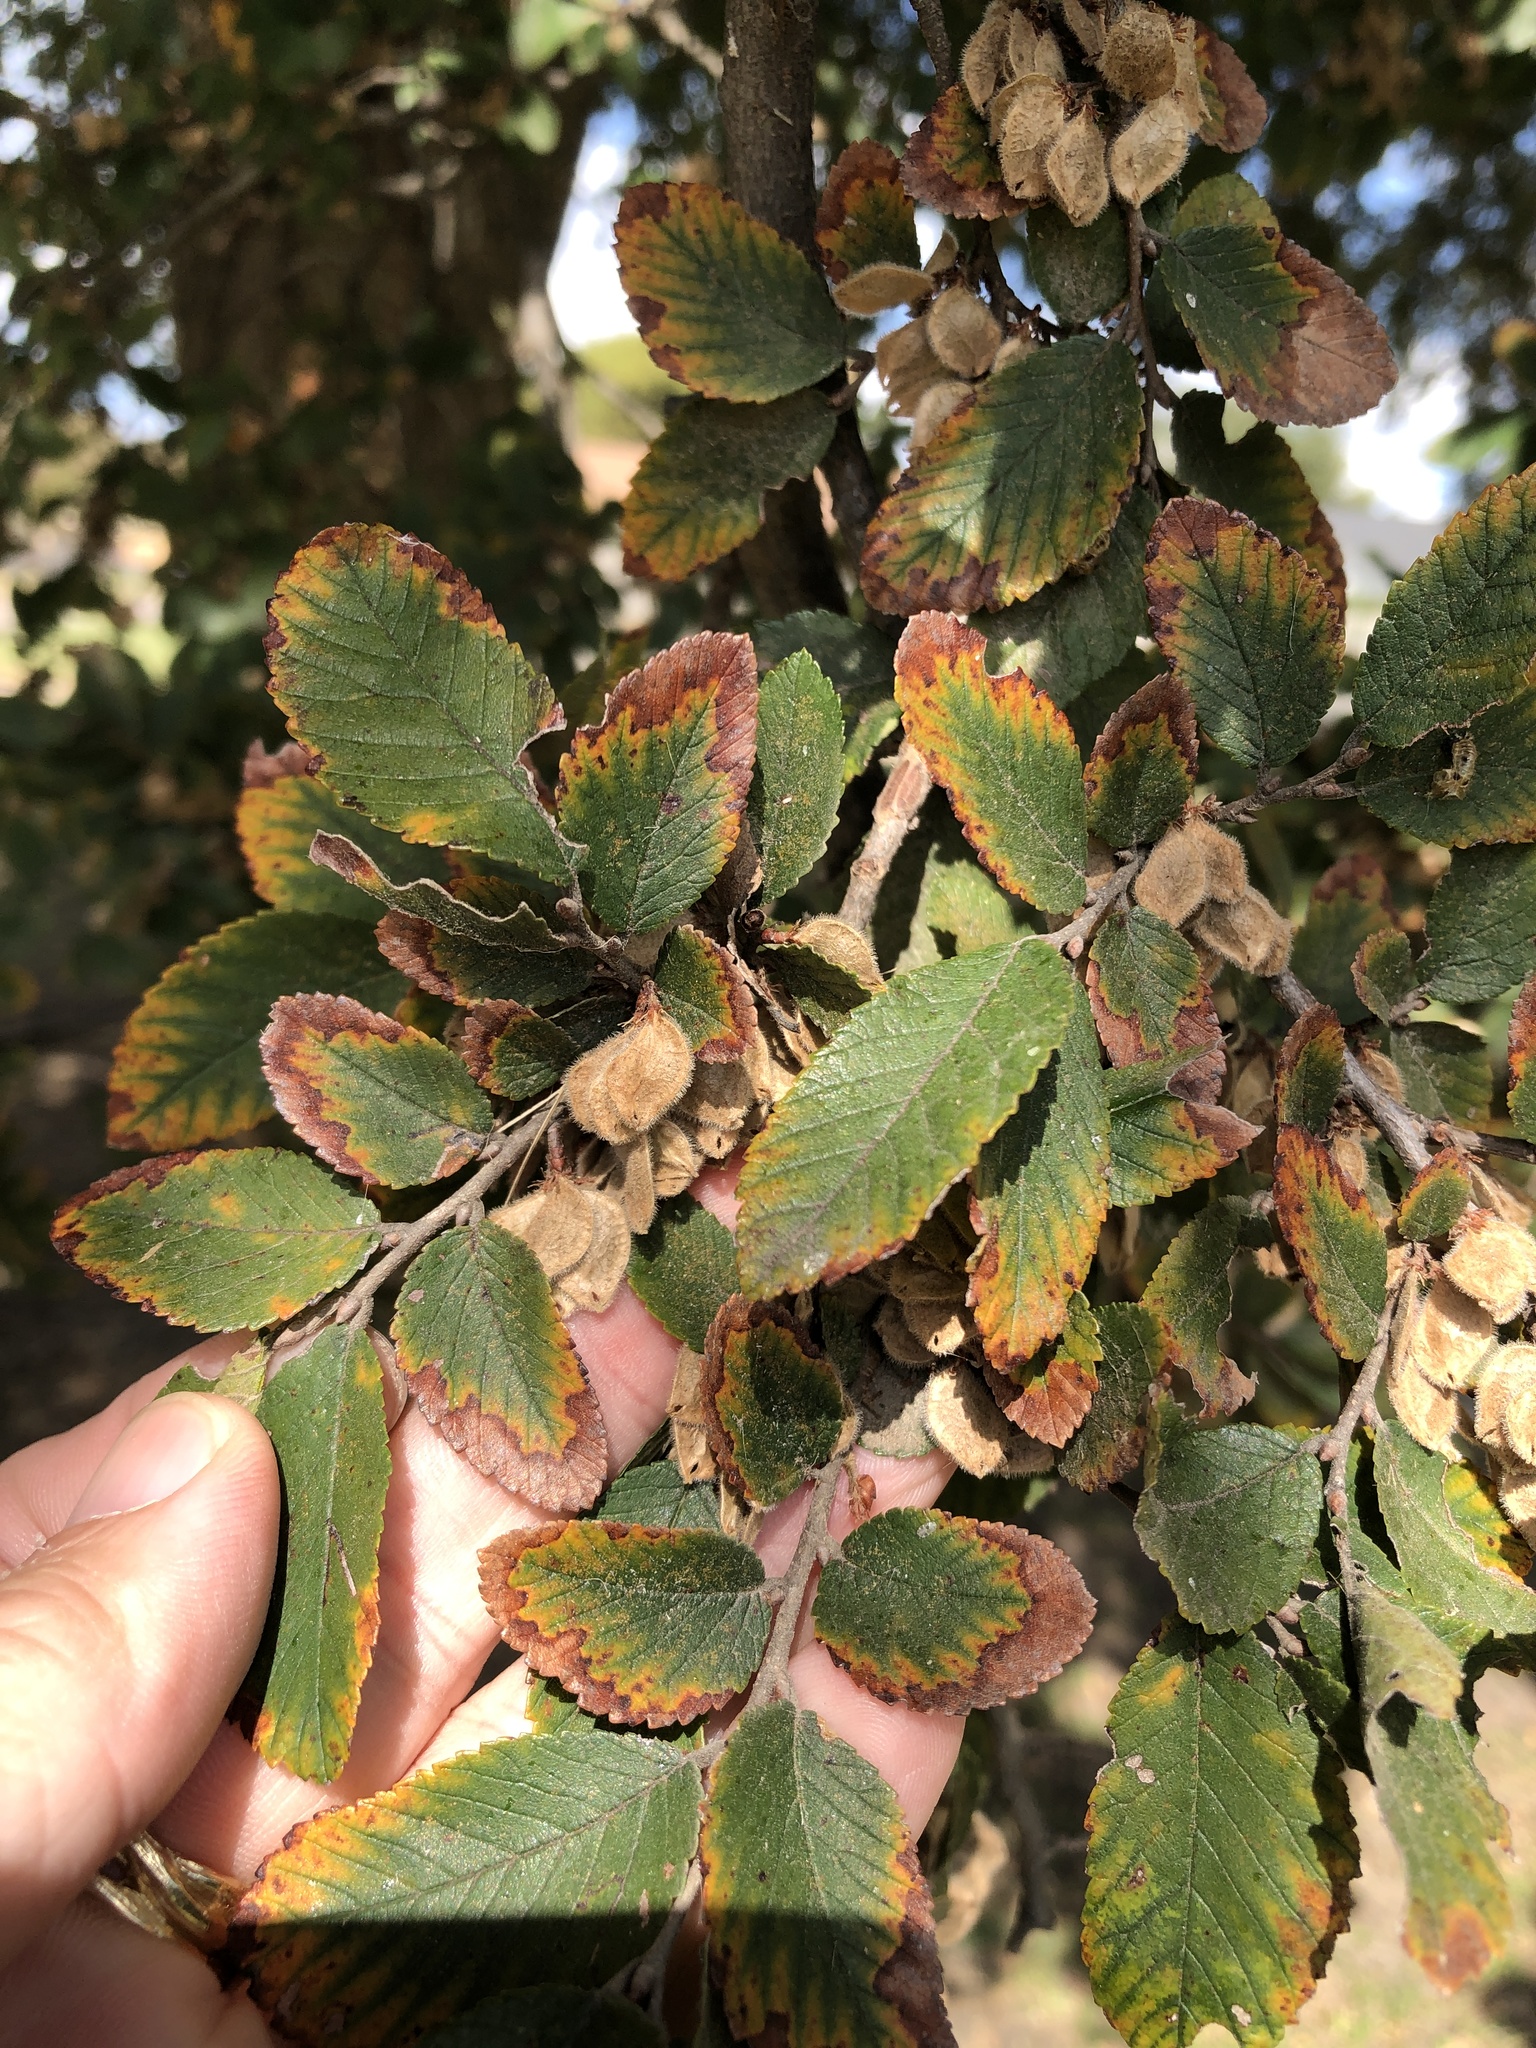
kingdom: Plantae
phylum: Tracheophyta
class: Magnoliopsida
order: Rosales
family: Ulmaceae
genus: Ulmus
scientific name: Ulmus crassifolia
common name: Basket elm
